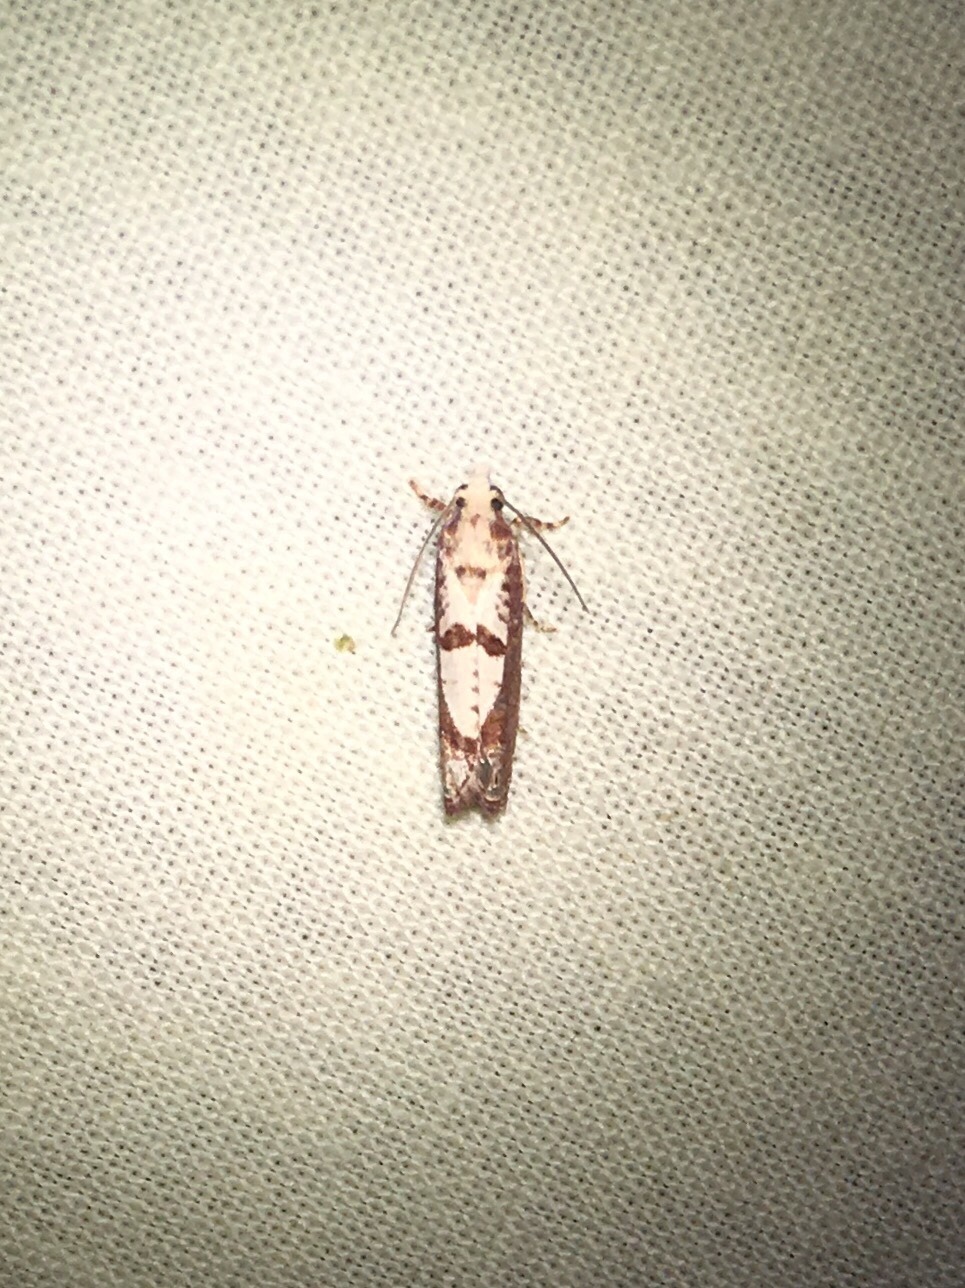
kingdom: Animalia
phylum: Arthropoda
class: Insecta
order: Lepidoptera
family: Tortricidae
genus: Episimus
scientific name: Episimus kimballi
